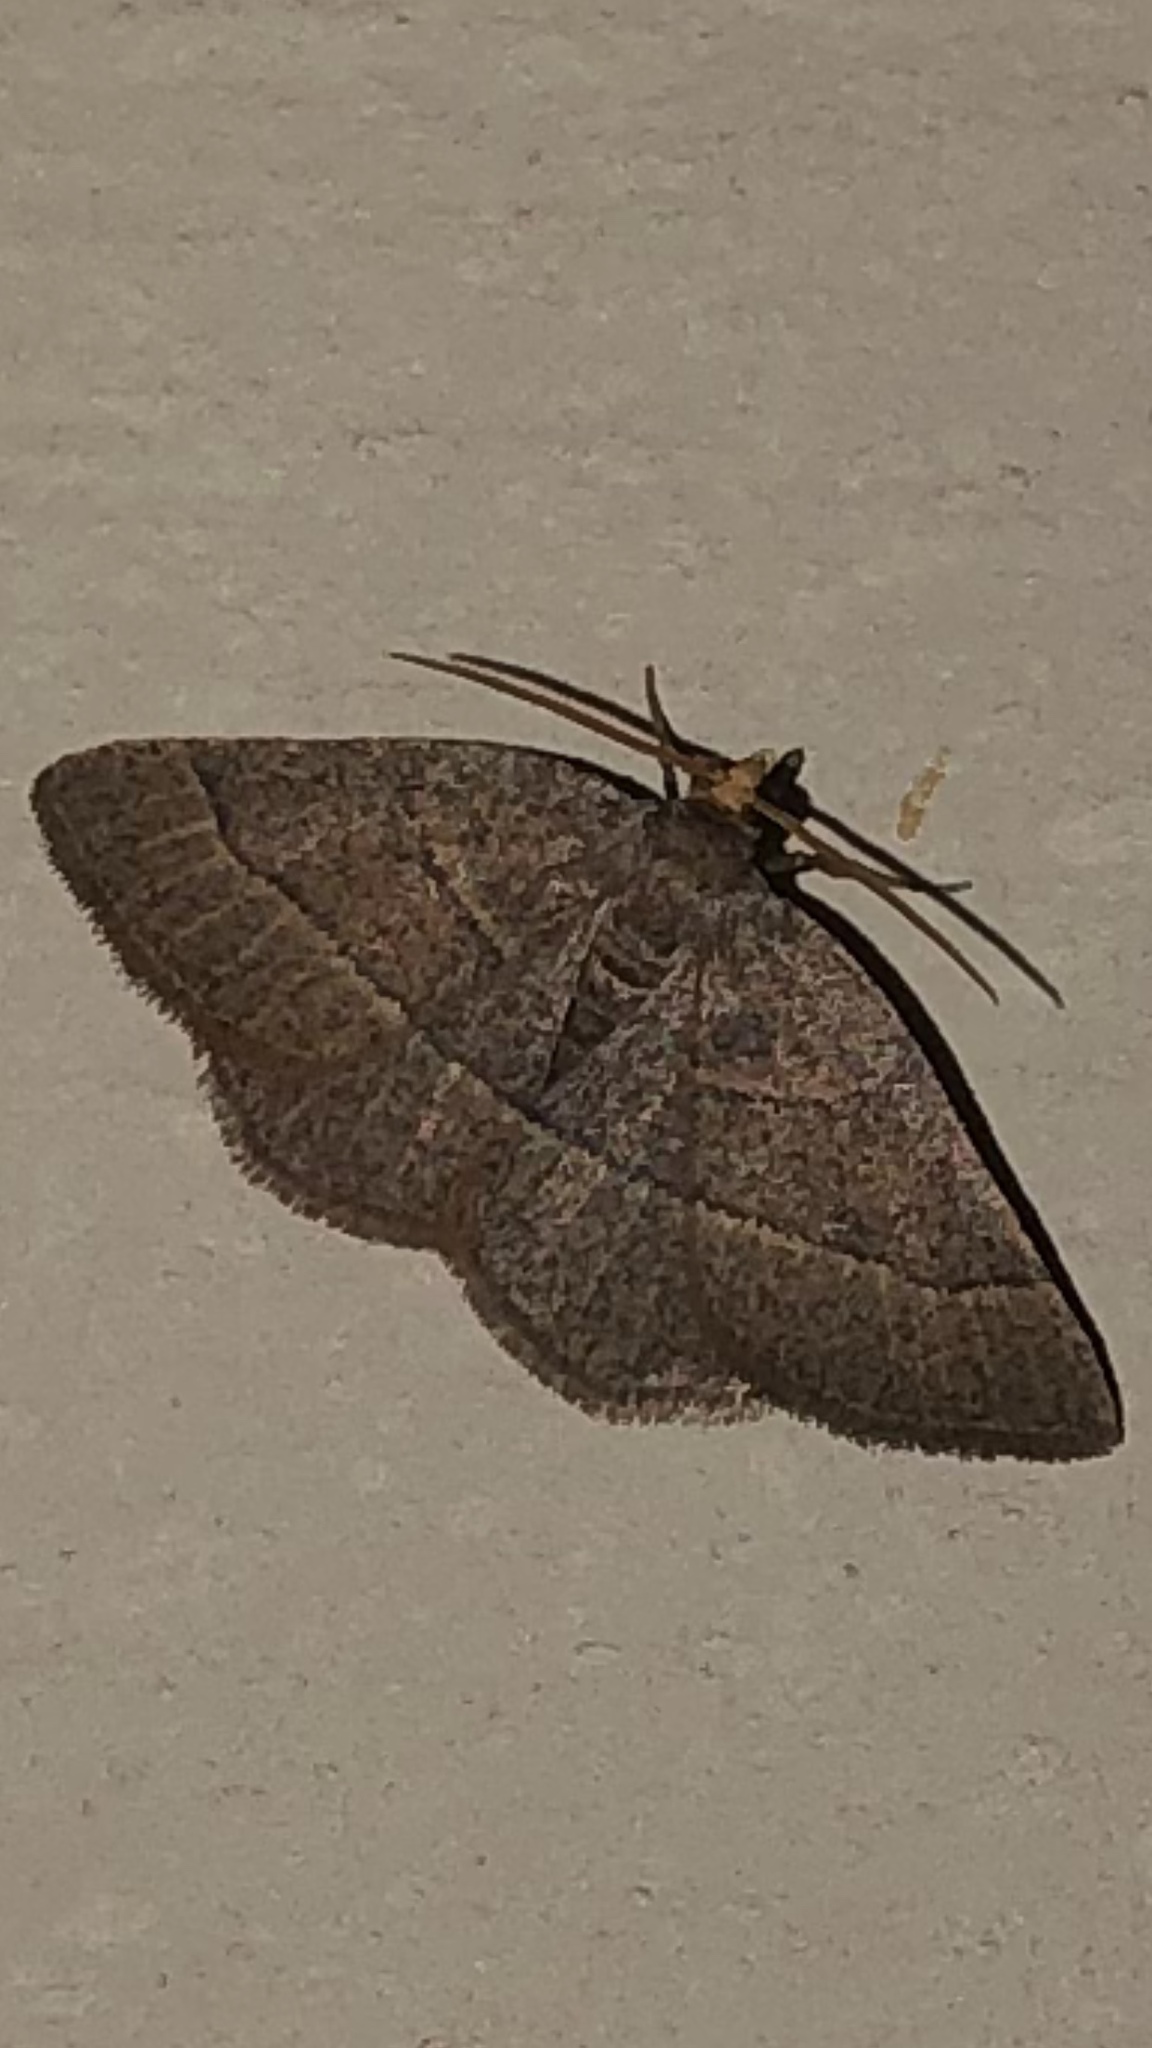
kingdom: Animalia
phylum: Arthropoda
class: Insecta
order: Lepidoptera
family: Geometridae
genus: Episemasia
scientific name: Episemasia cervinaria
